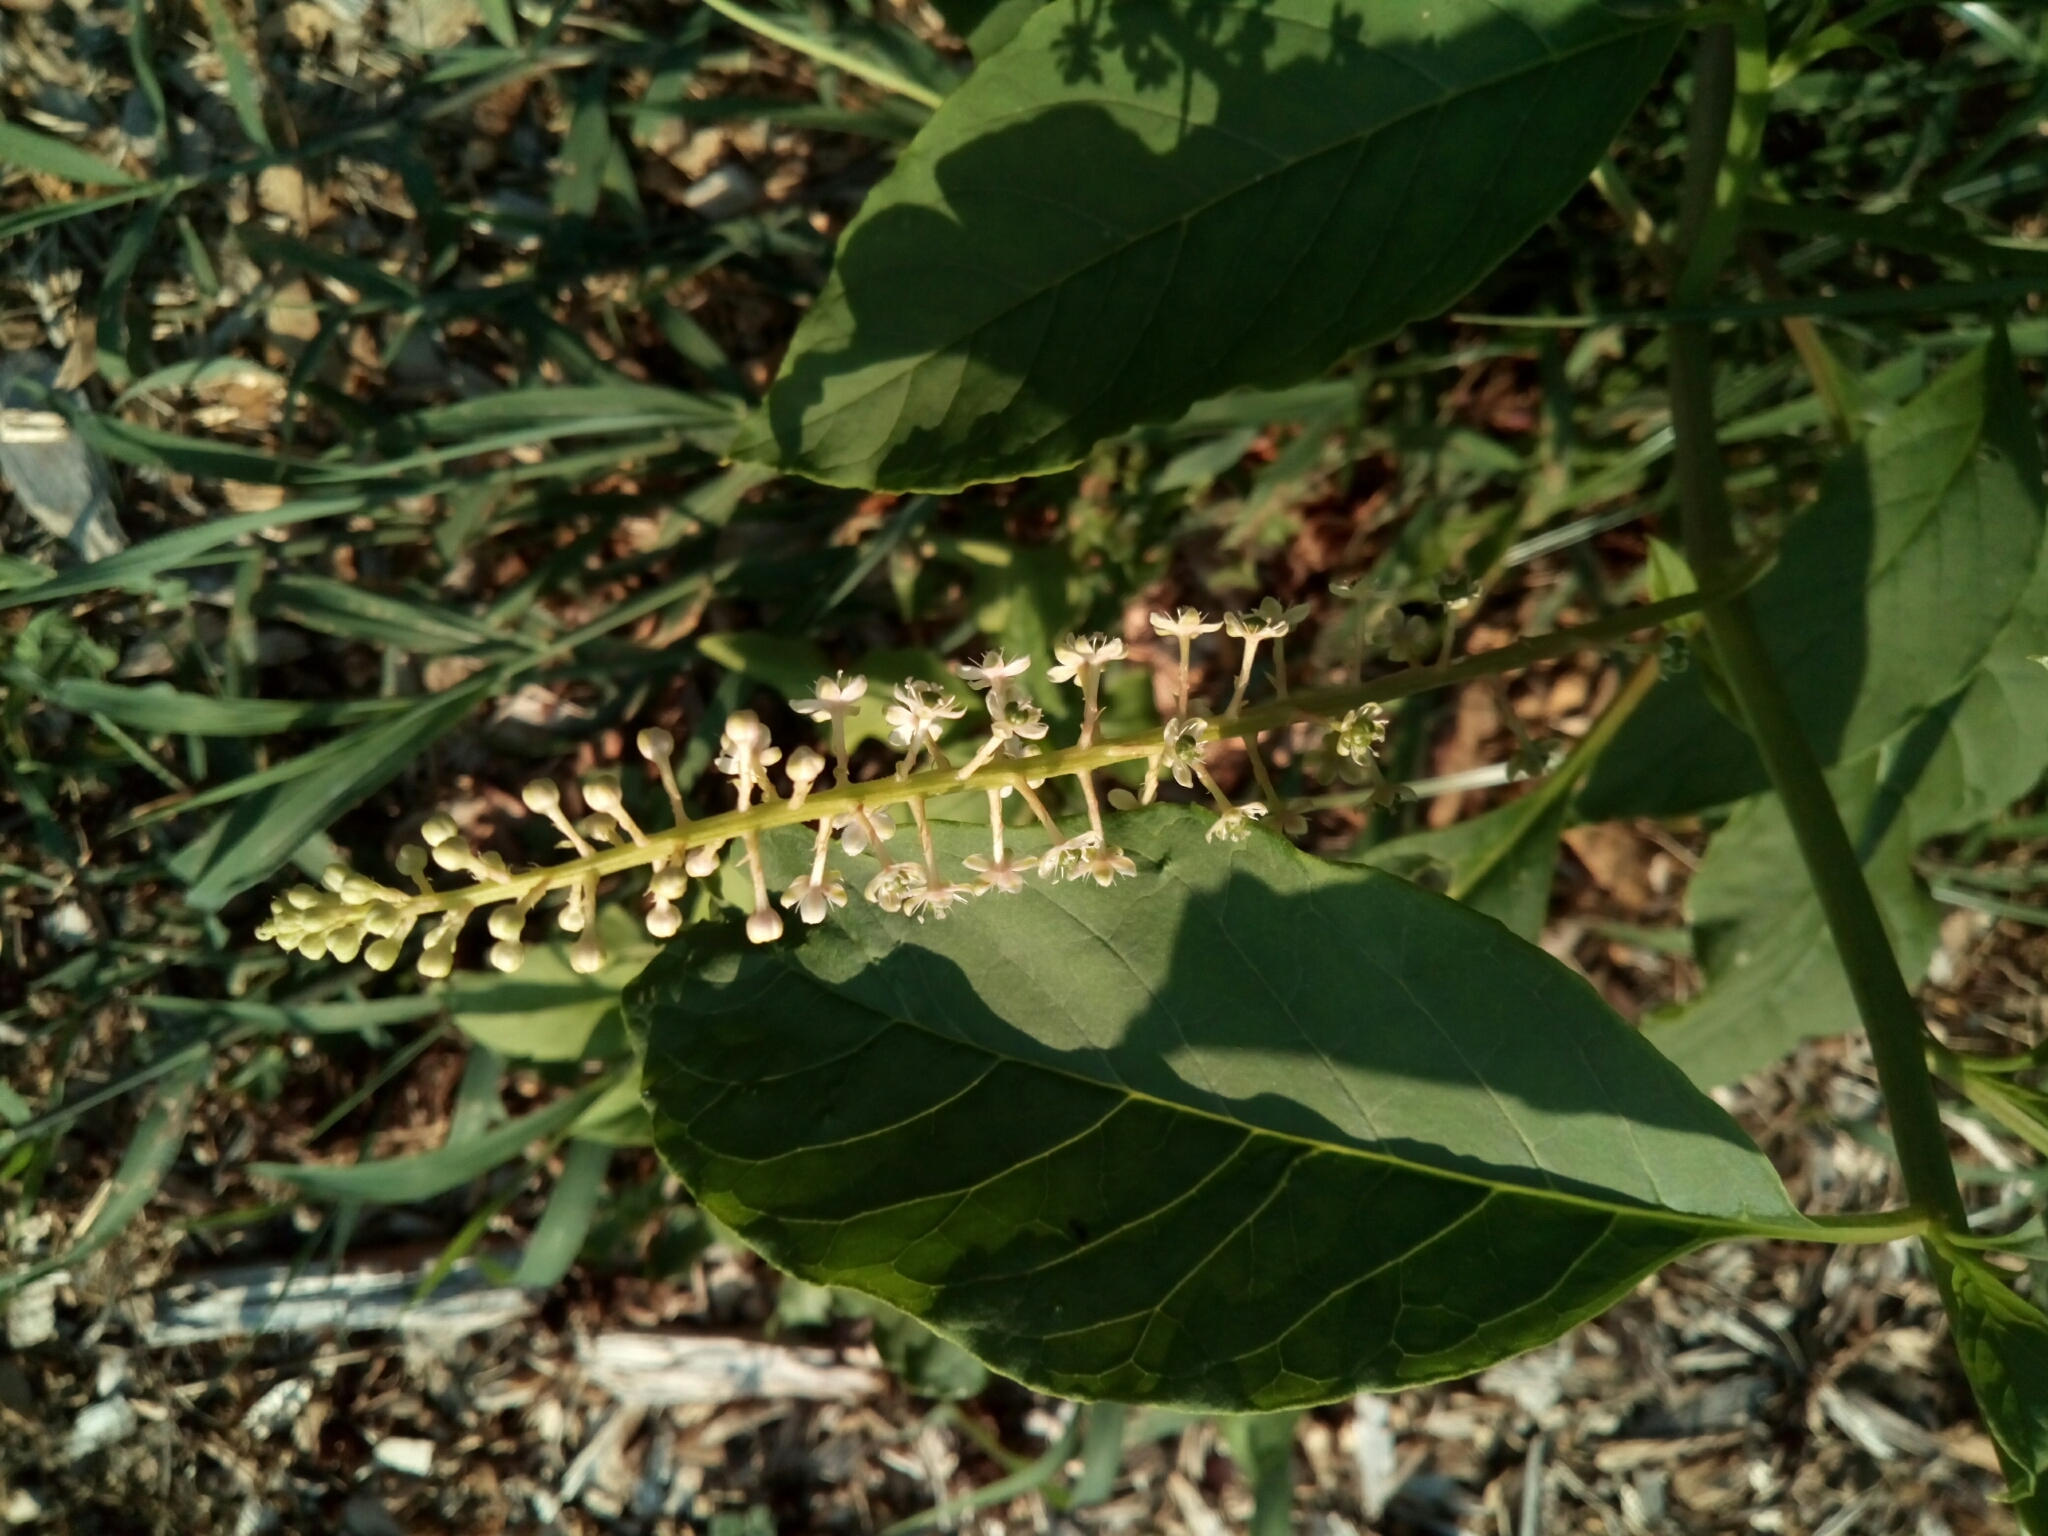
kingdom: Plantae
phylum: Tracheophyta
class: Magnoliopsida
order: Caryophyllales
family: Phytolaccaceae
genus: Phytolacca
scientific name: Phytolacca americana
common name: American pokeweed
